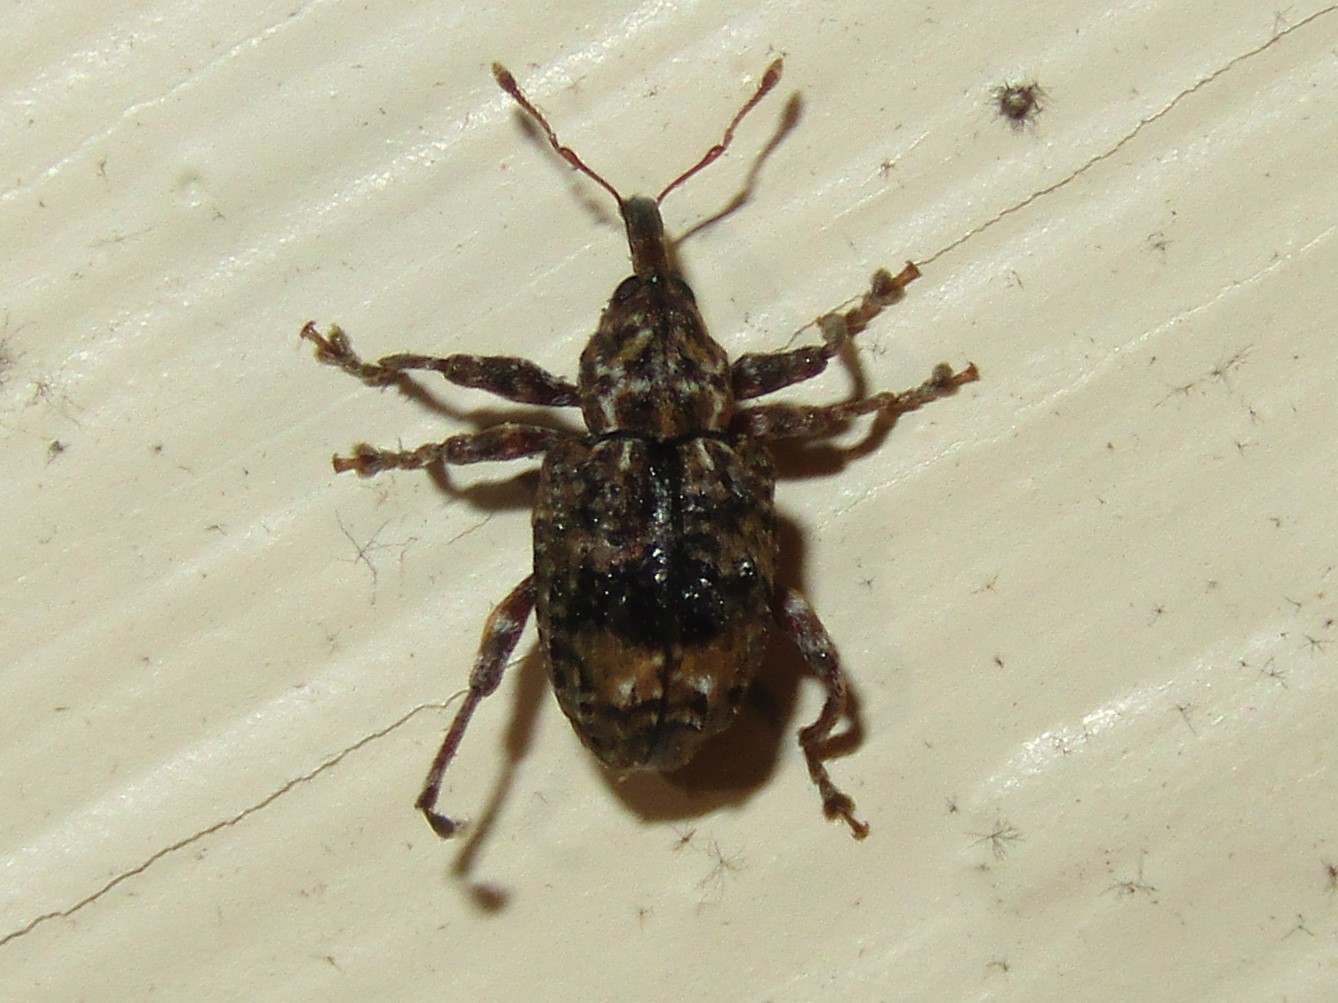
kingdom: Animalia
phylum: Arthropoda
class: Insecta
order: Coleoptera
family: Curculionidae
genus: Conotrachelus
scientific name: Conotrachelus nenuphar
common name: Plum curculio
